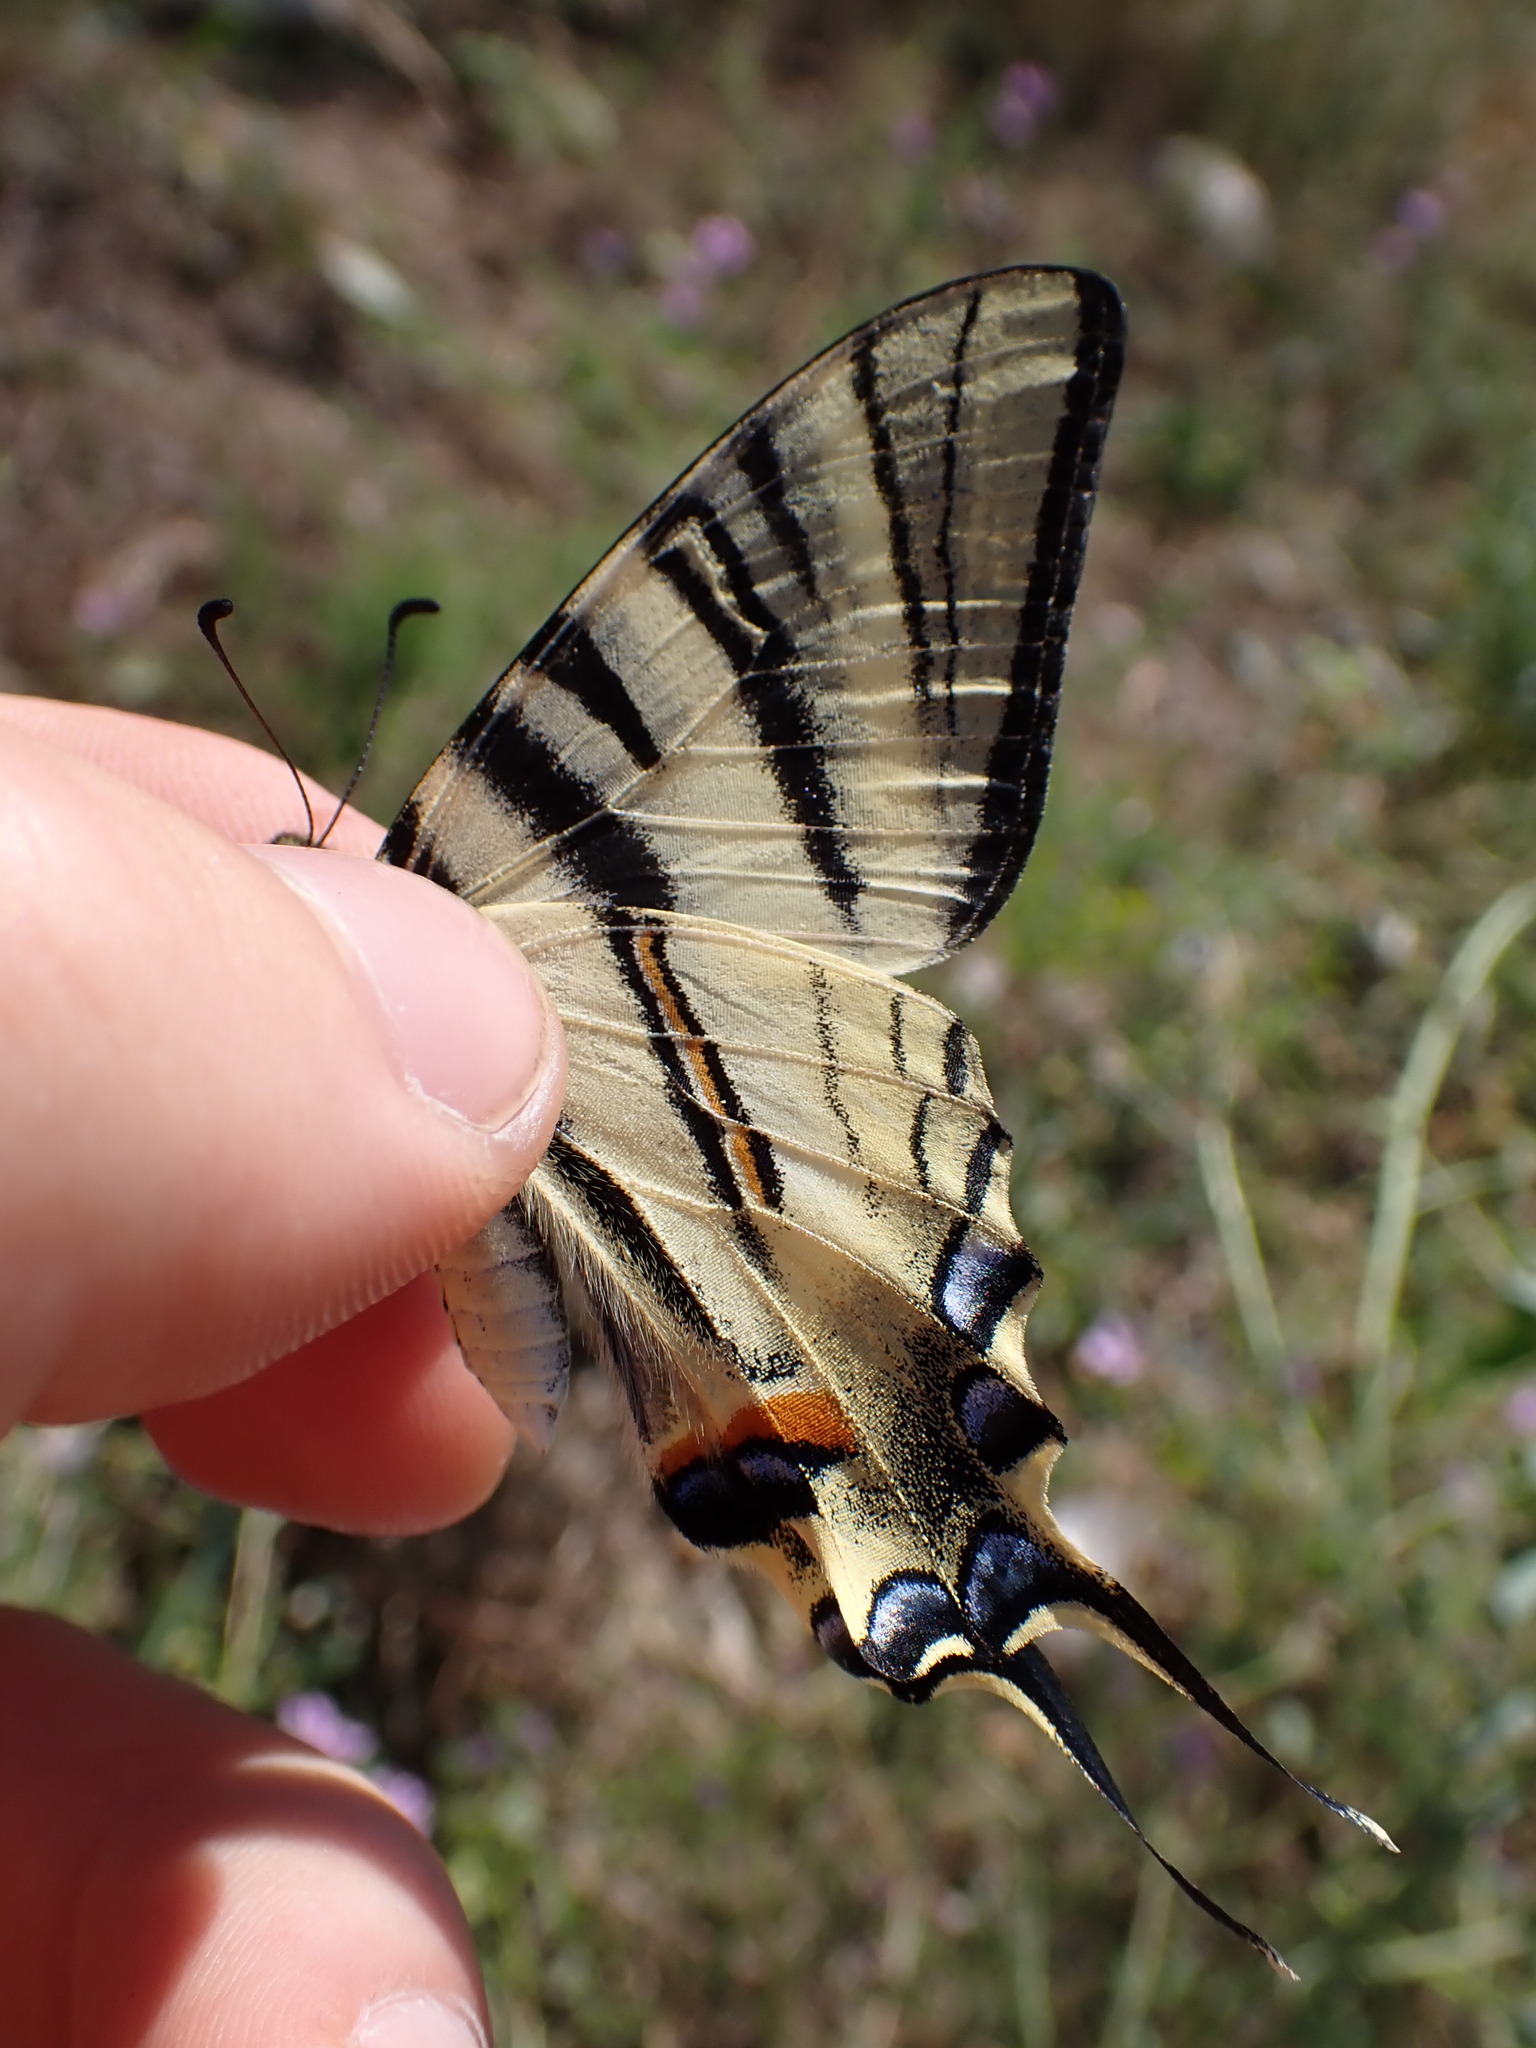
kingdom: Animalia
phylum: Arthropoda
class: Insecta
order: Lepidoptera
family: Papilionidae
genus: Iphiclides
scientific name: Iphiclides podalirius
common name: Scarce swallowtail
